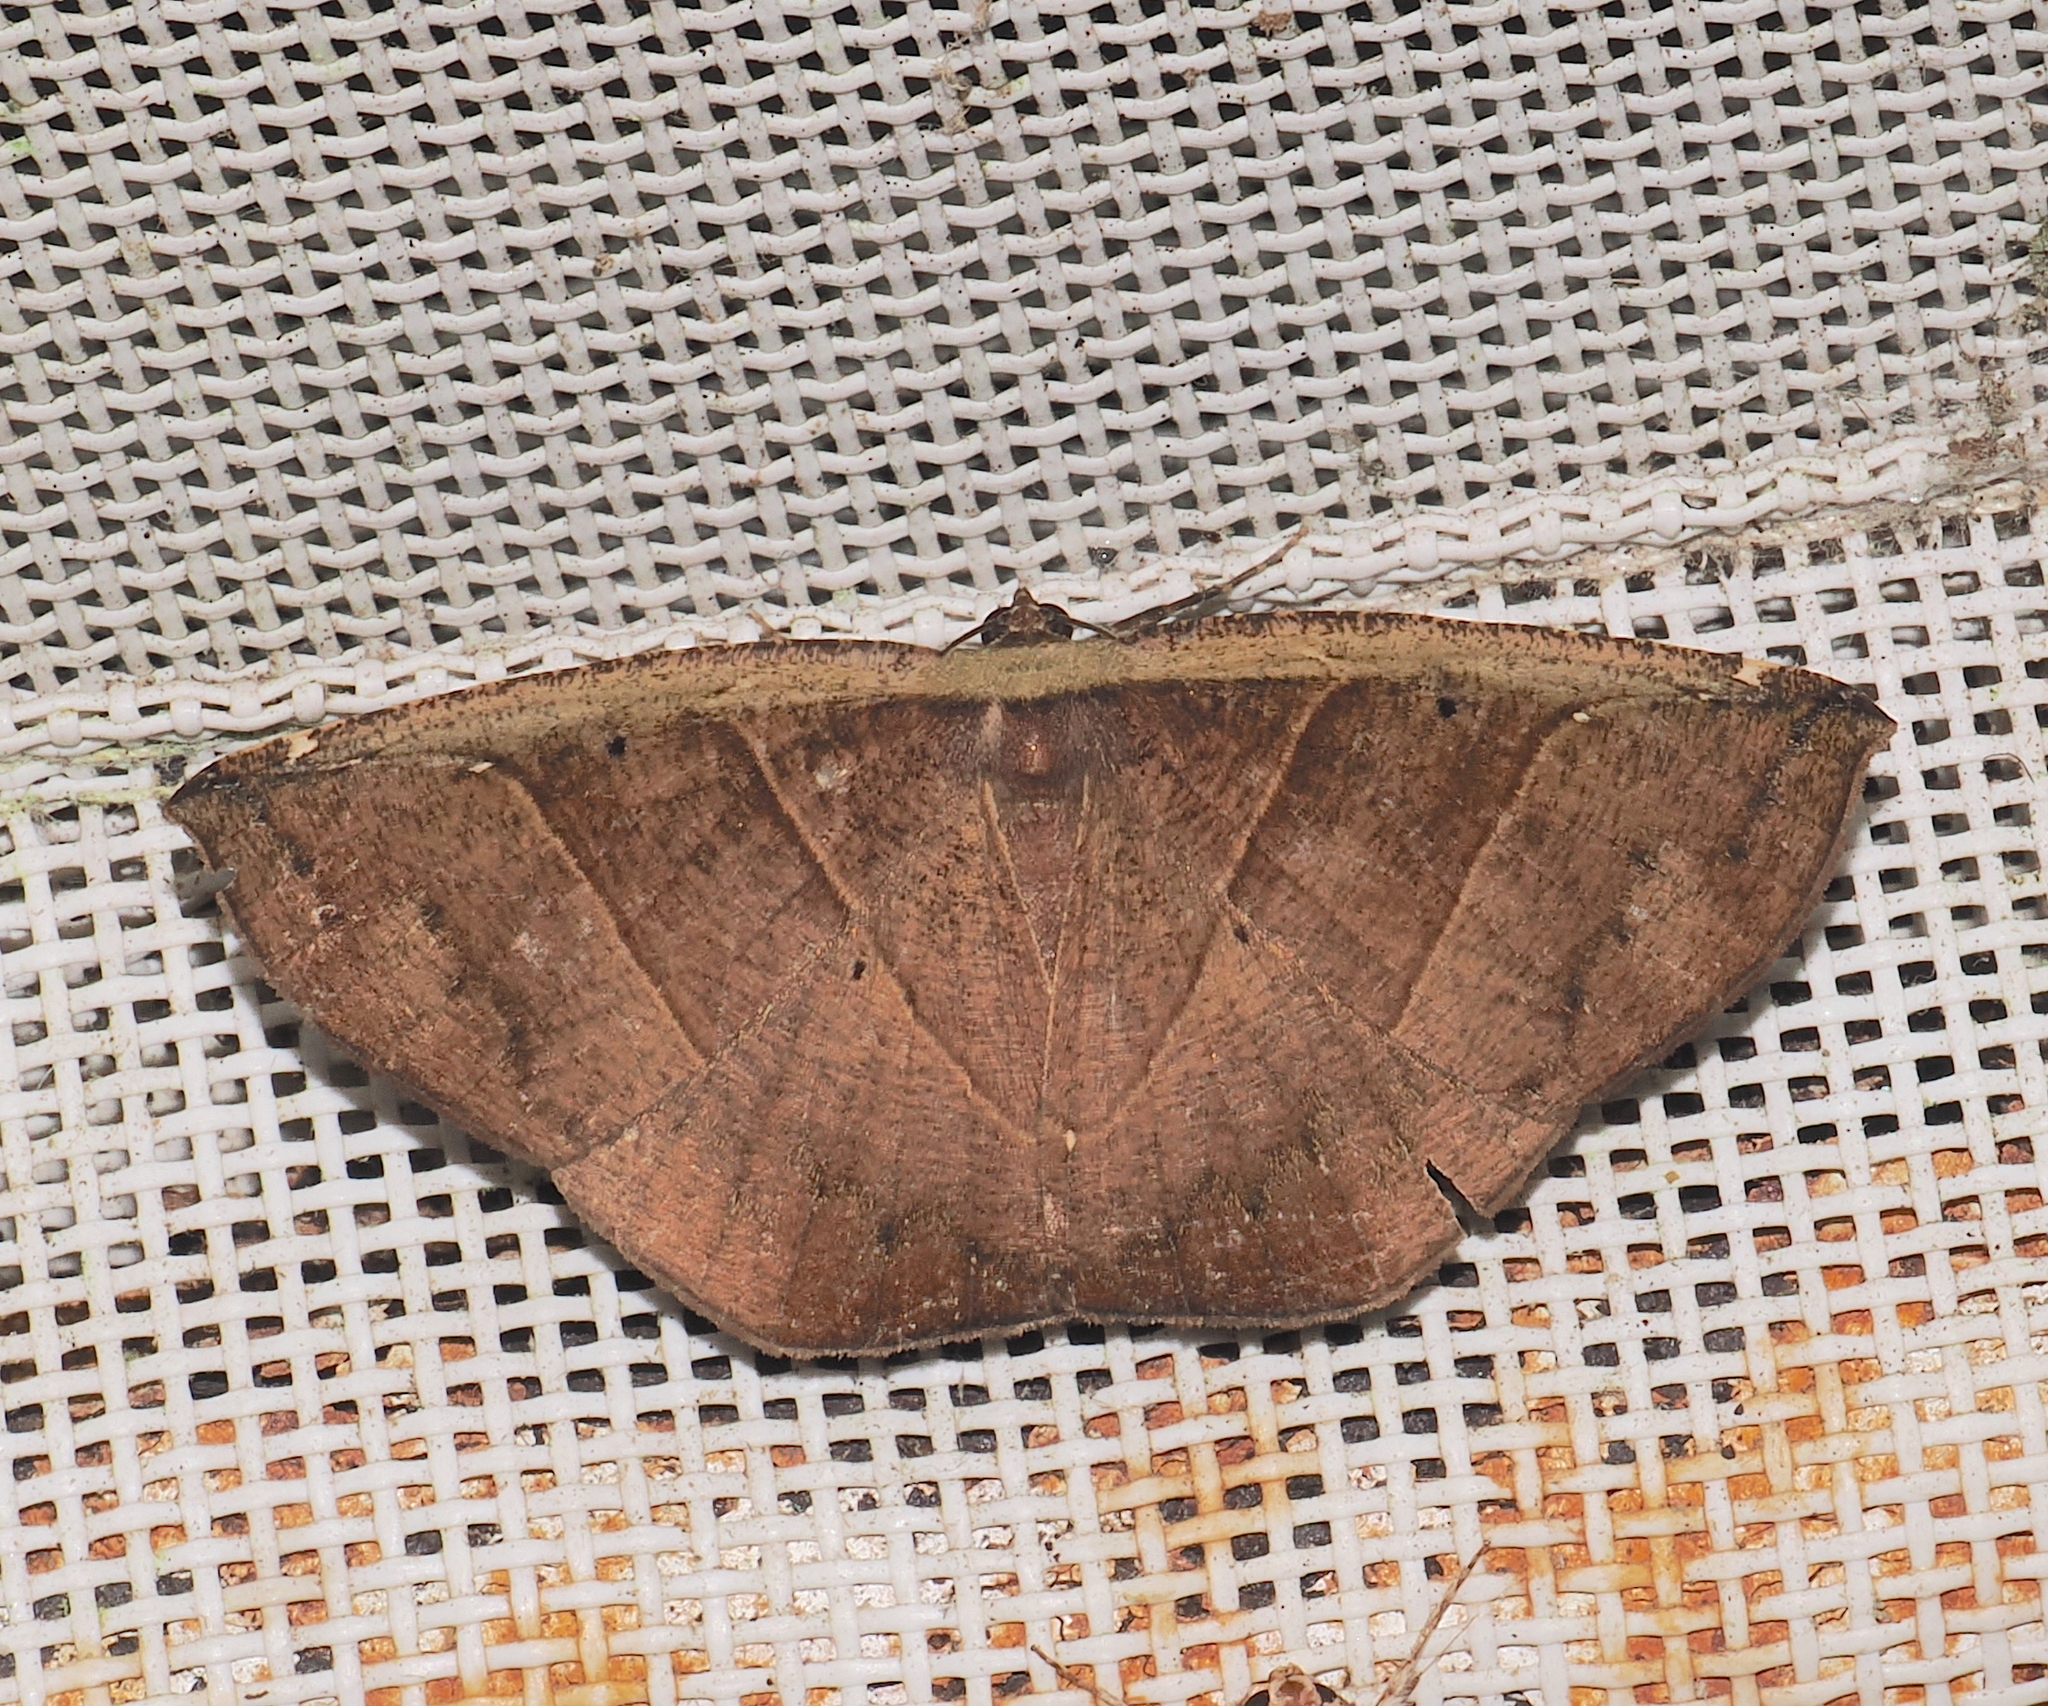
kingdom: Animalia
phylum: Arthropoda
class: Insecta
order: Lepidoptera
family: Geometridae
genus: Cimicodes
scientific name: Cimicodes clisthena
